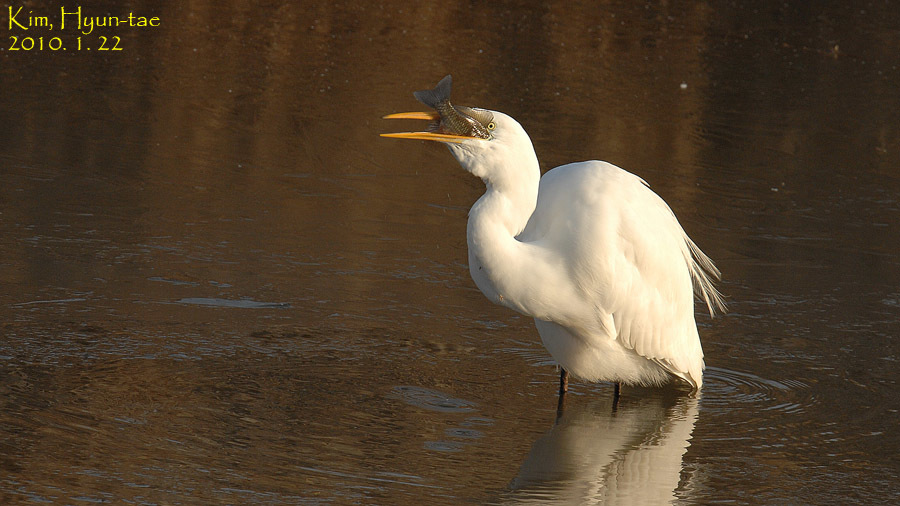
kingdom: Animalia
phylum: Chordata
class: Aves
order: Pelecaniformes
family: Ardeidae
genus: Ardea
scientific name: Ardea alba
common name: Great egret
